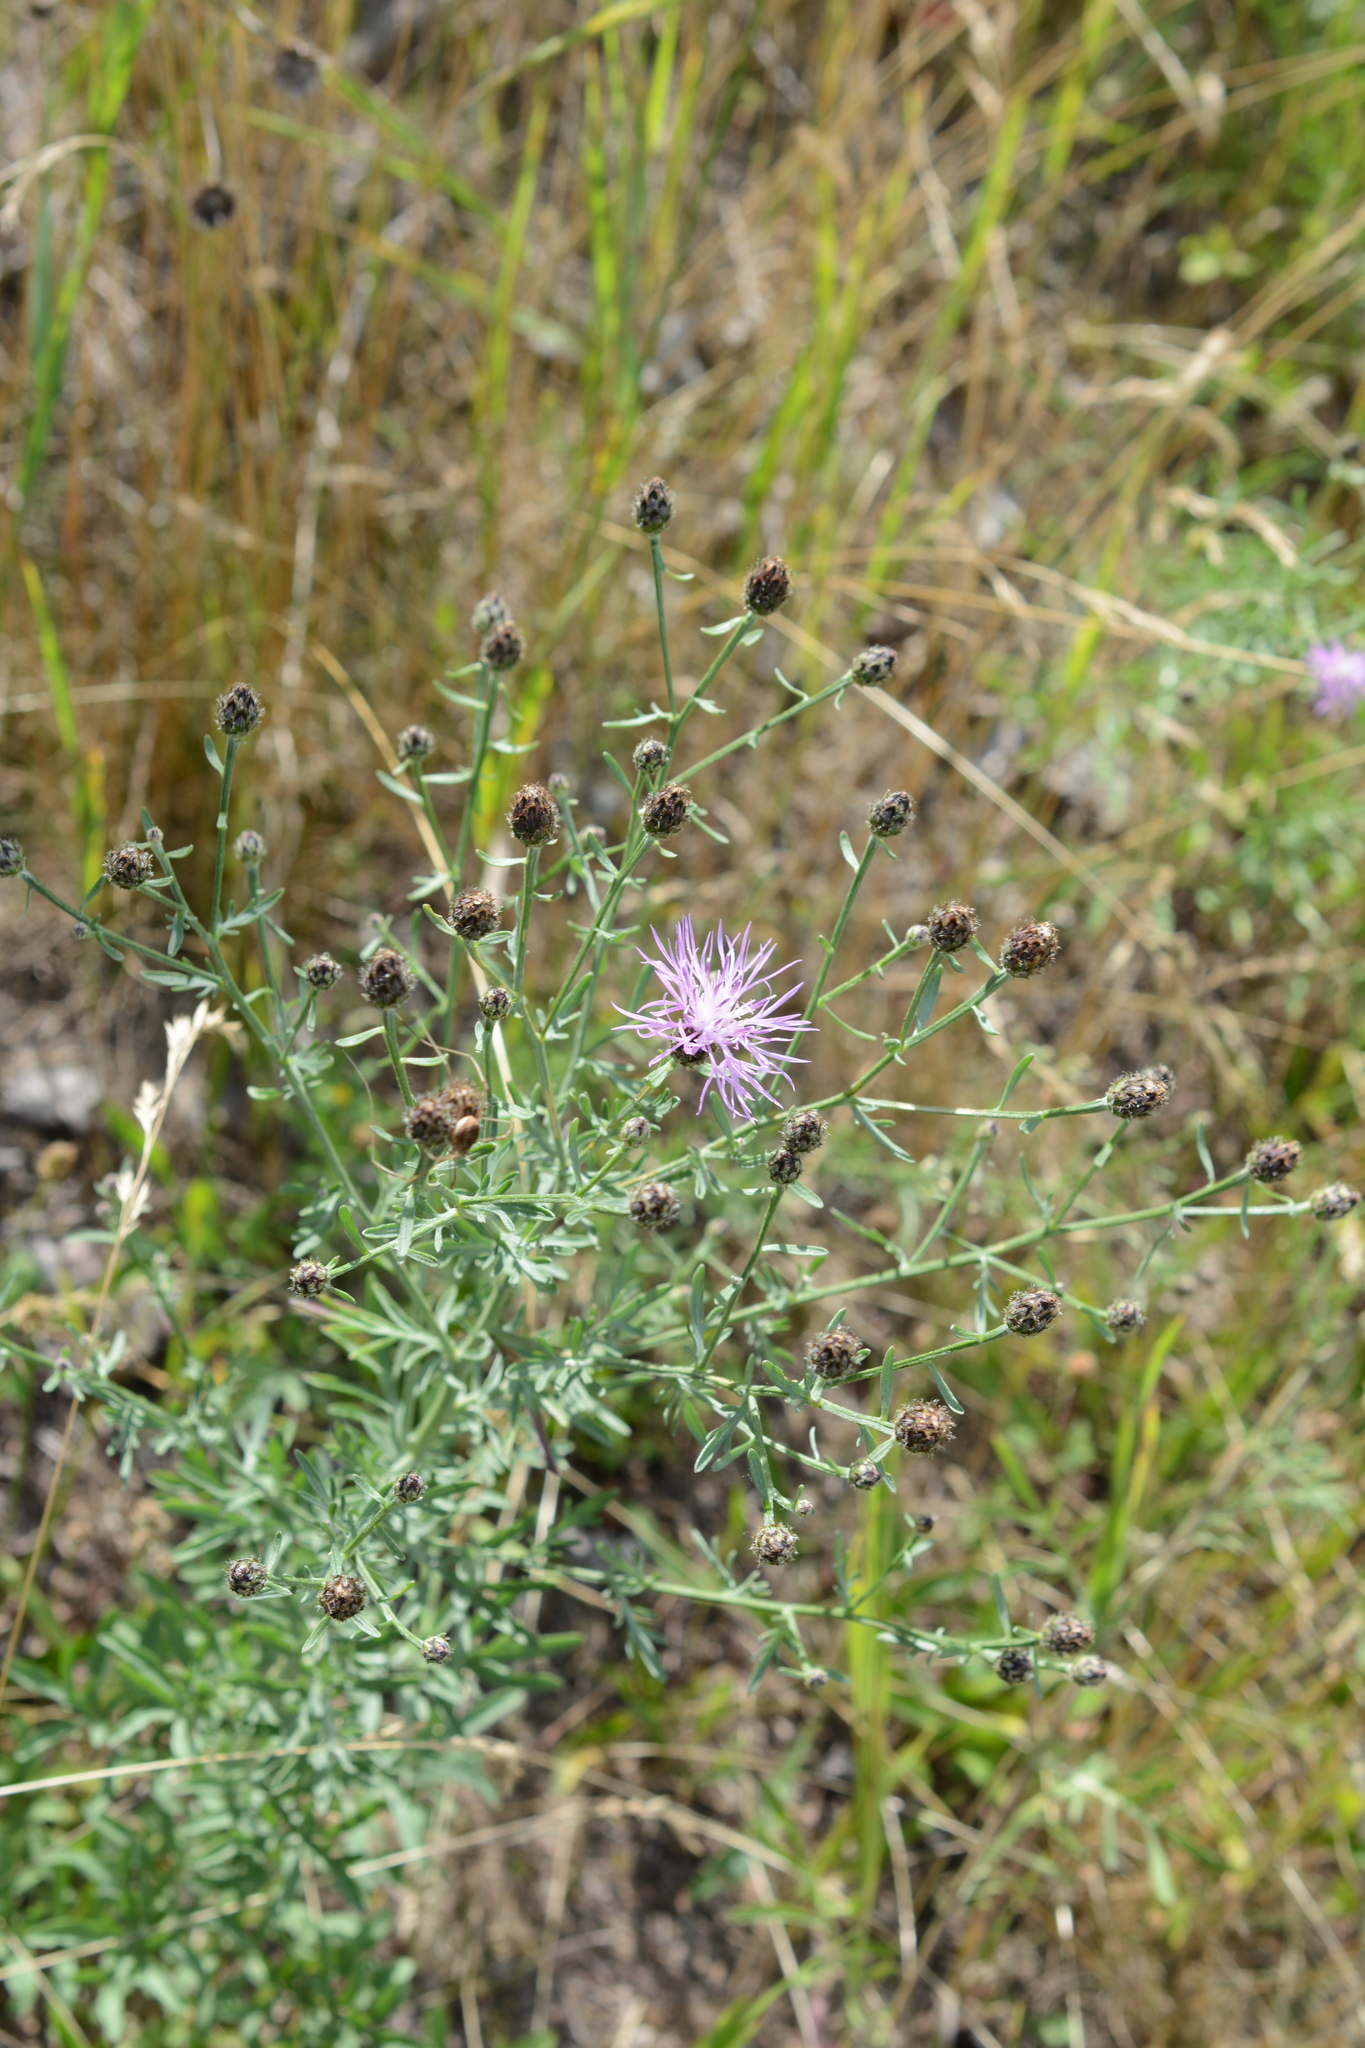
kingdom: Plantae
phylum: Tracheophyta
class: Magnoliopsida
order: Asterales
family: Asteraceae
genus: Centaurea
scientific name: Centaurea stoebe
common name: Spotted knapweed
